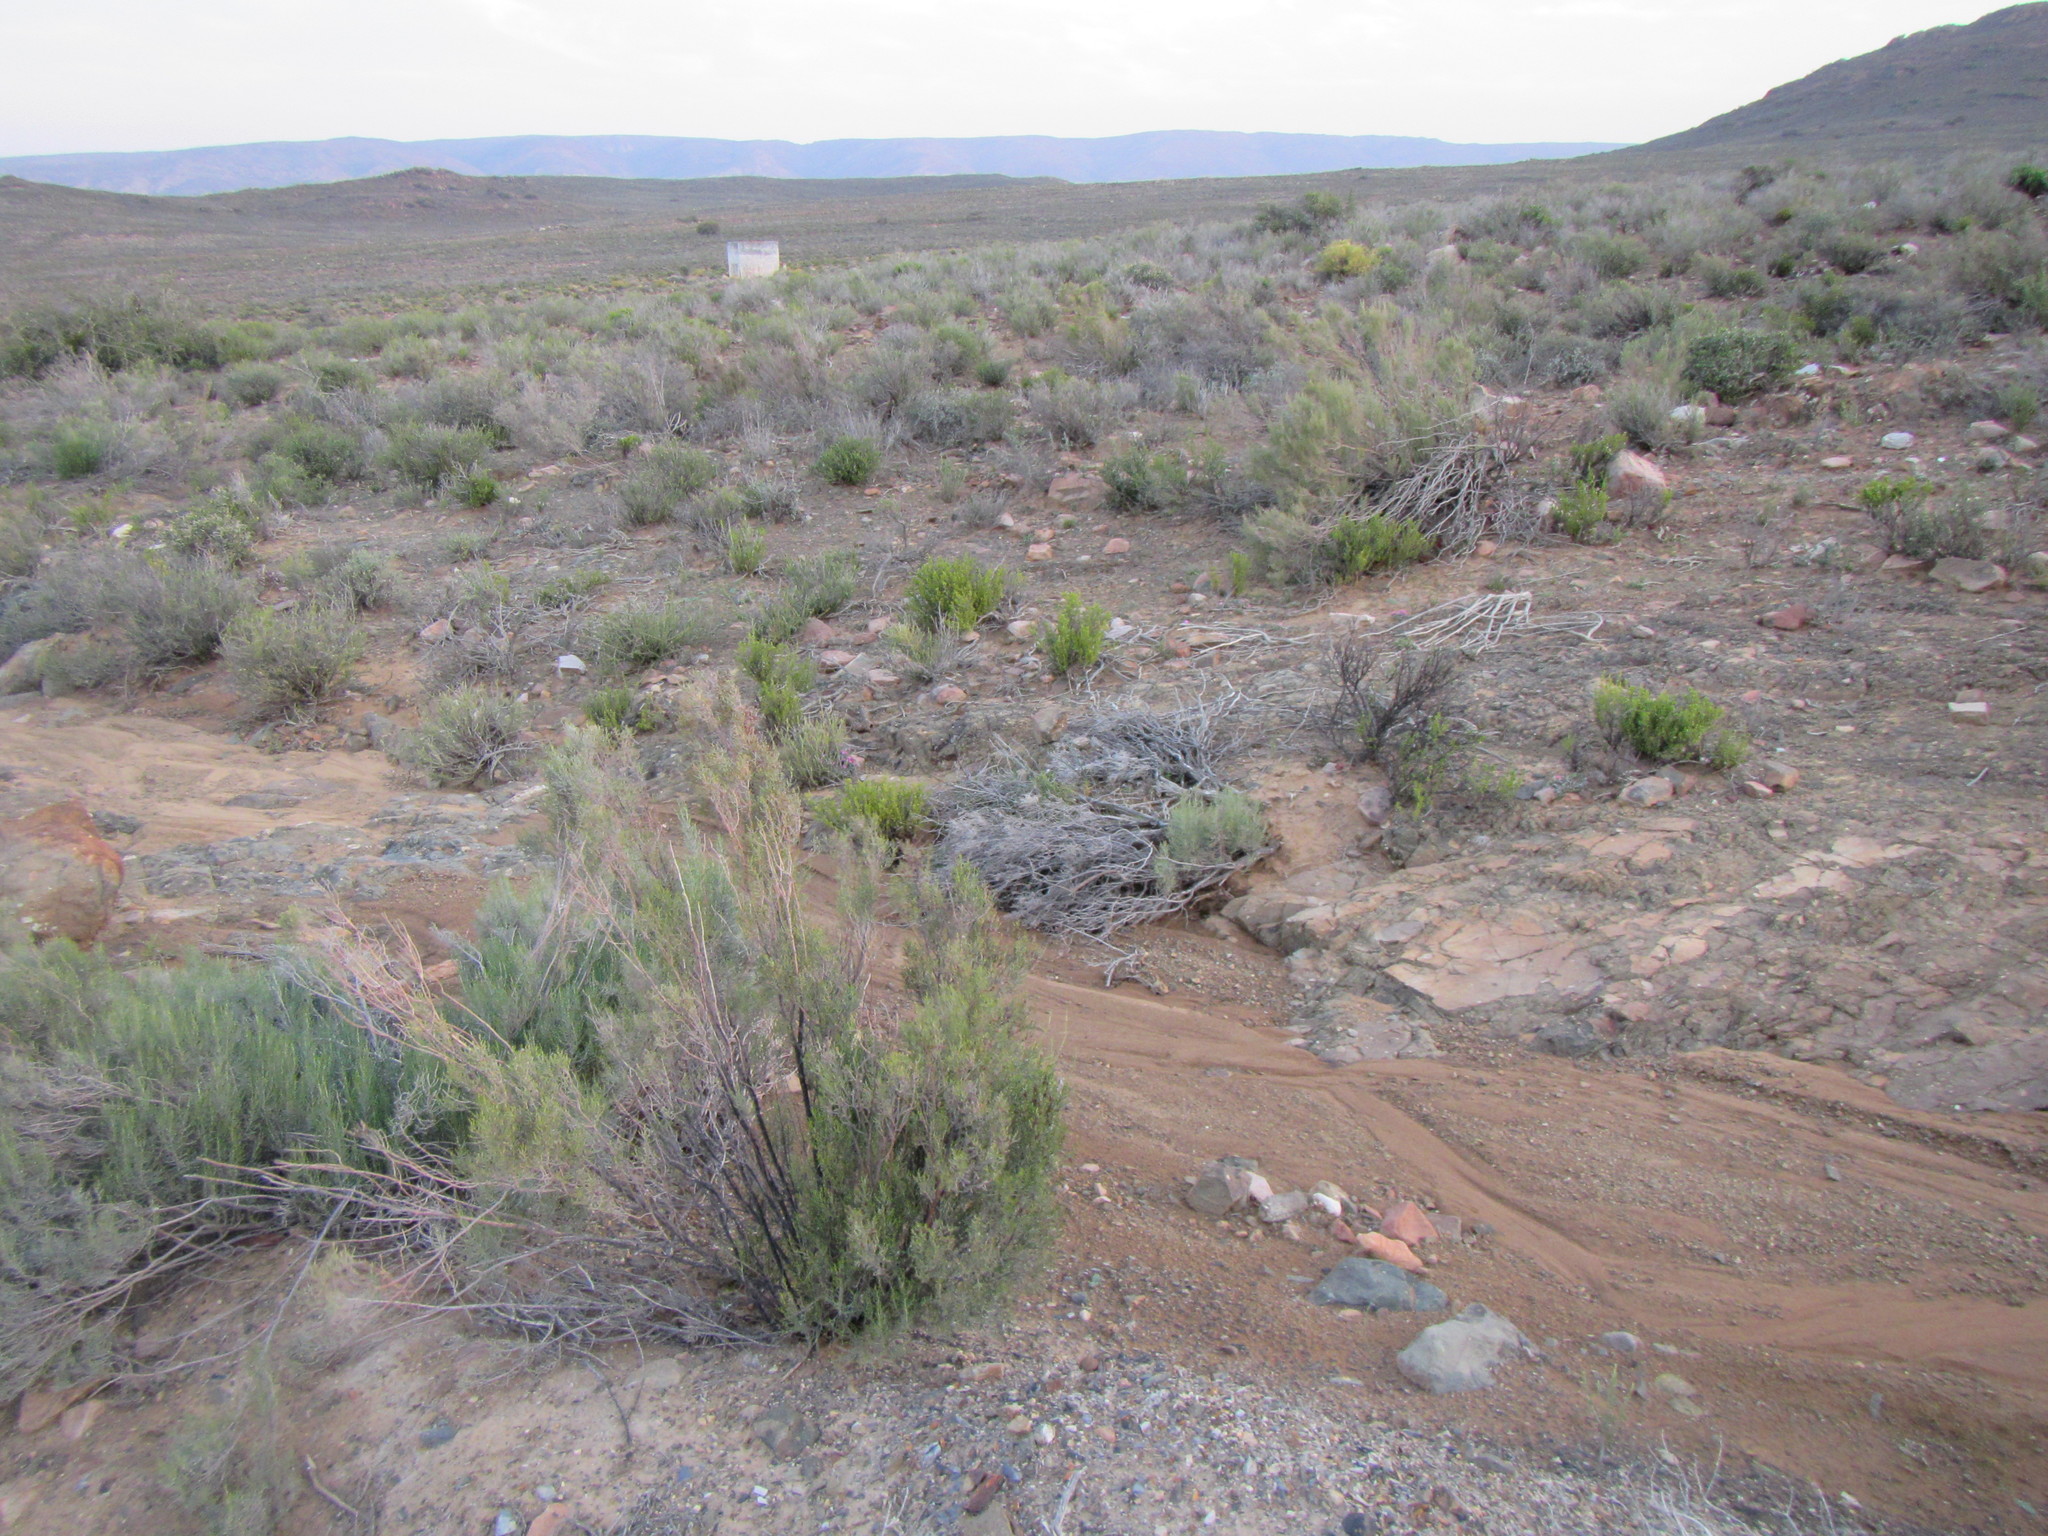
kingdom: Plantae
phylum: Tracheophyta
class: Magnoliopsida
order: Asterales
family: Asteraceae
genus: Dicerothamnus
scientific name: Dicerothamnus rhinocerotis
